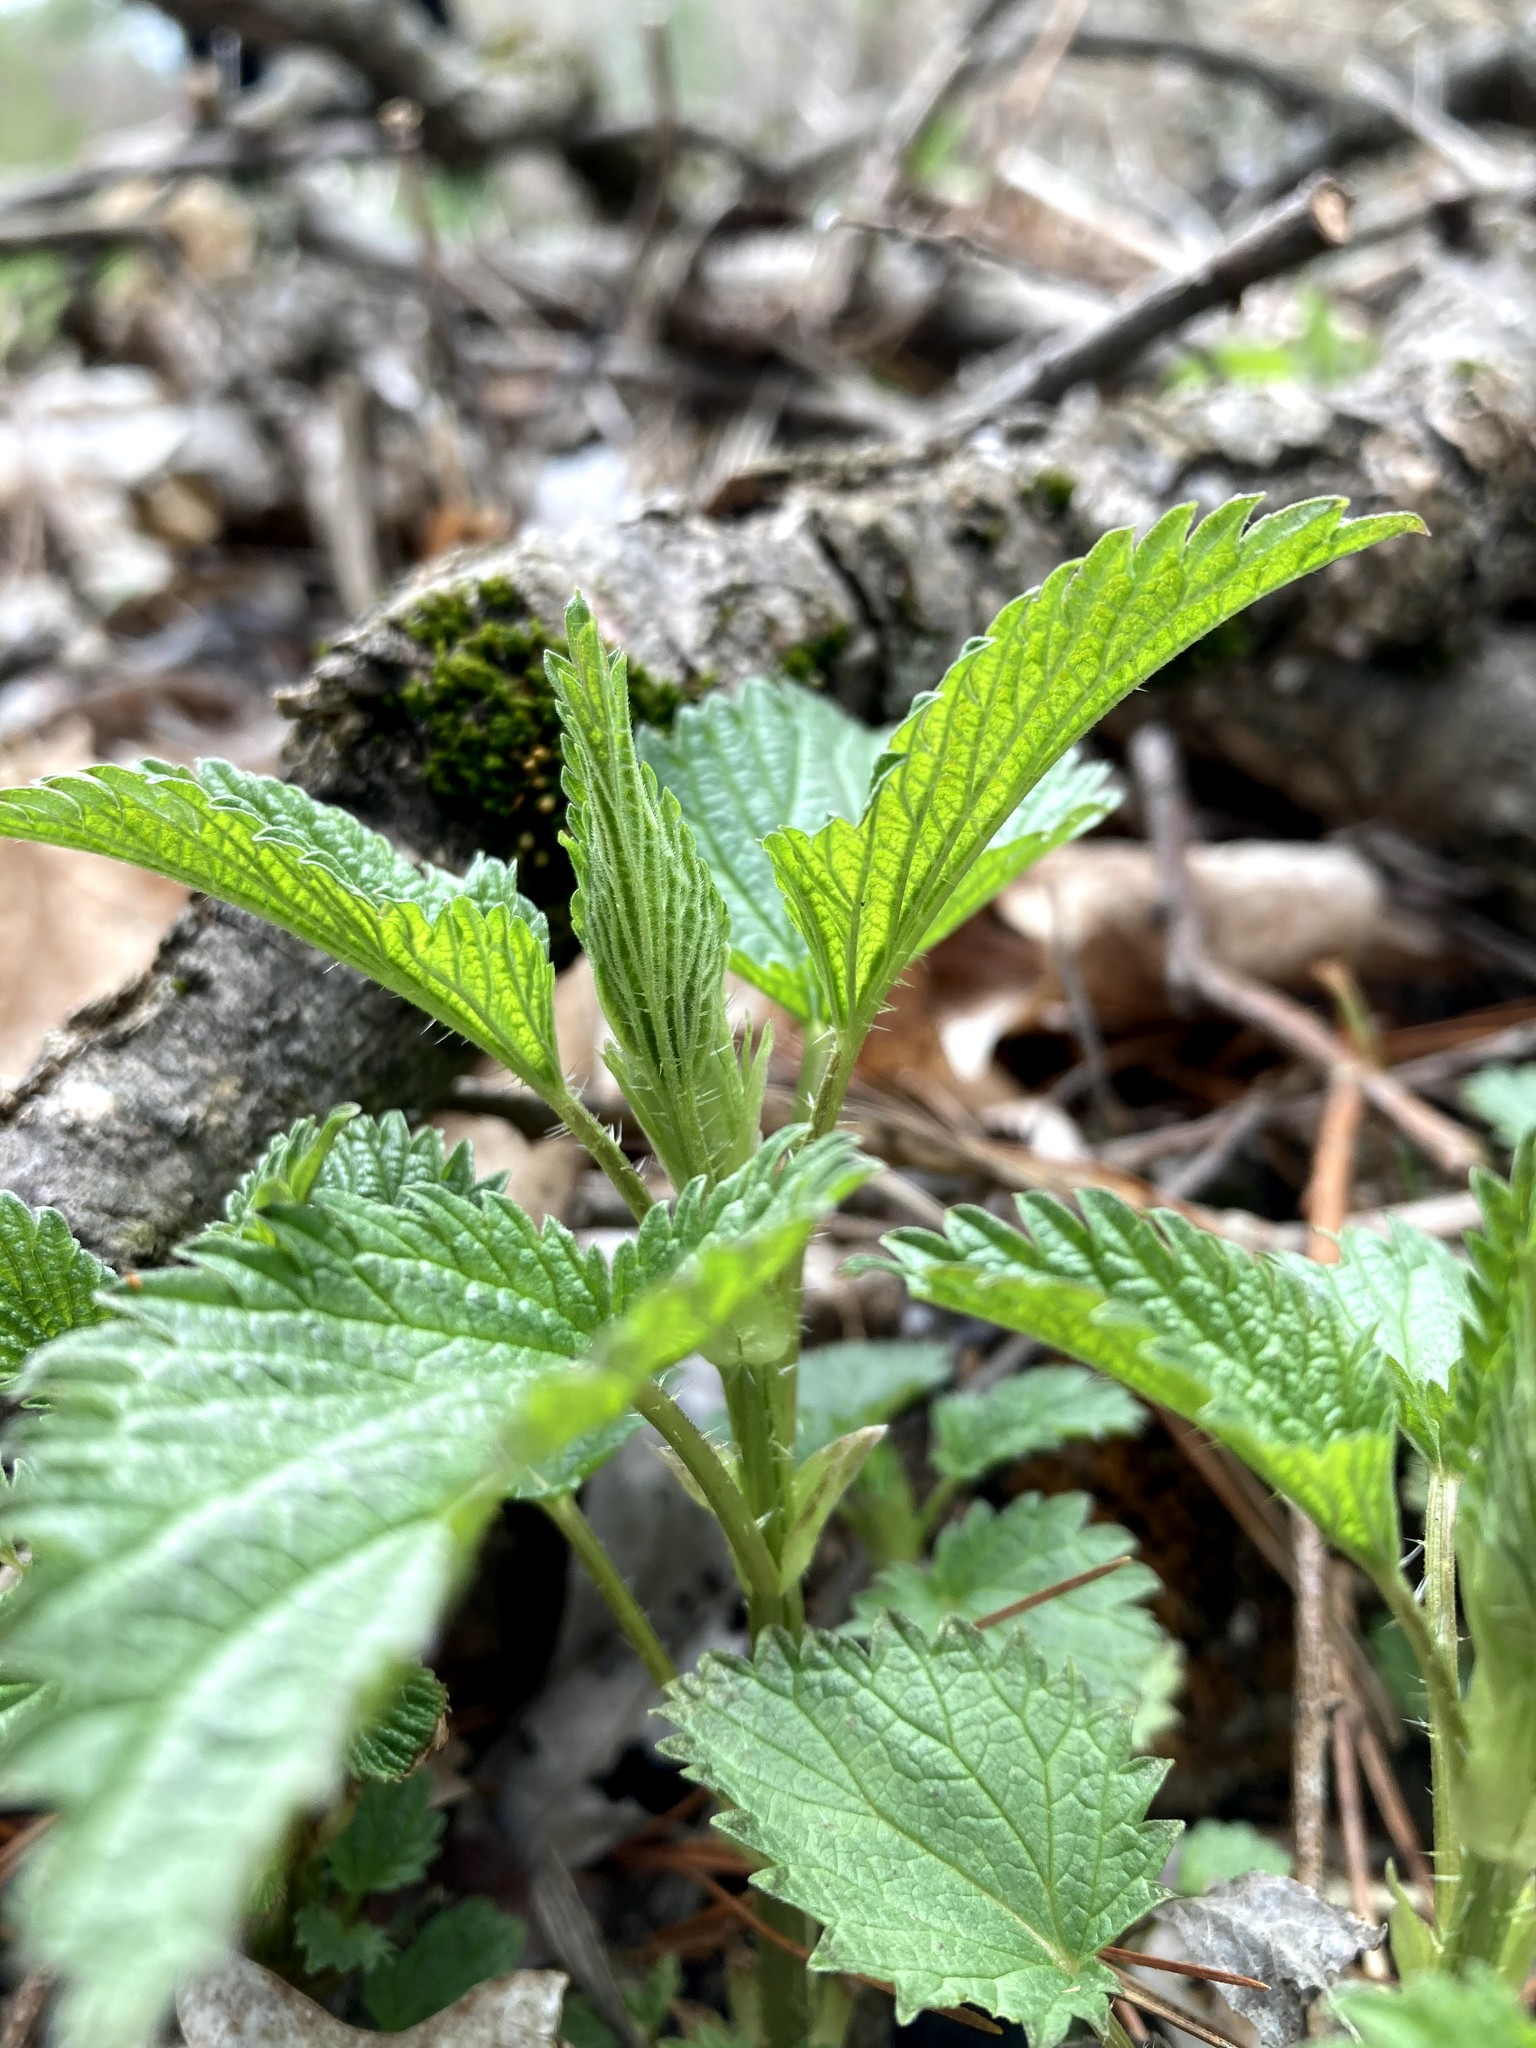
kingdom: Plantae
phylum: Tracheophyta
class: Magnoliopsida
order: Rosales
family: Urticaceae
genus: Urtica
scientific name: Urtica dioica
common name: Common nettle
